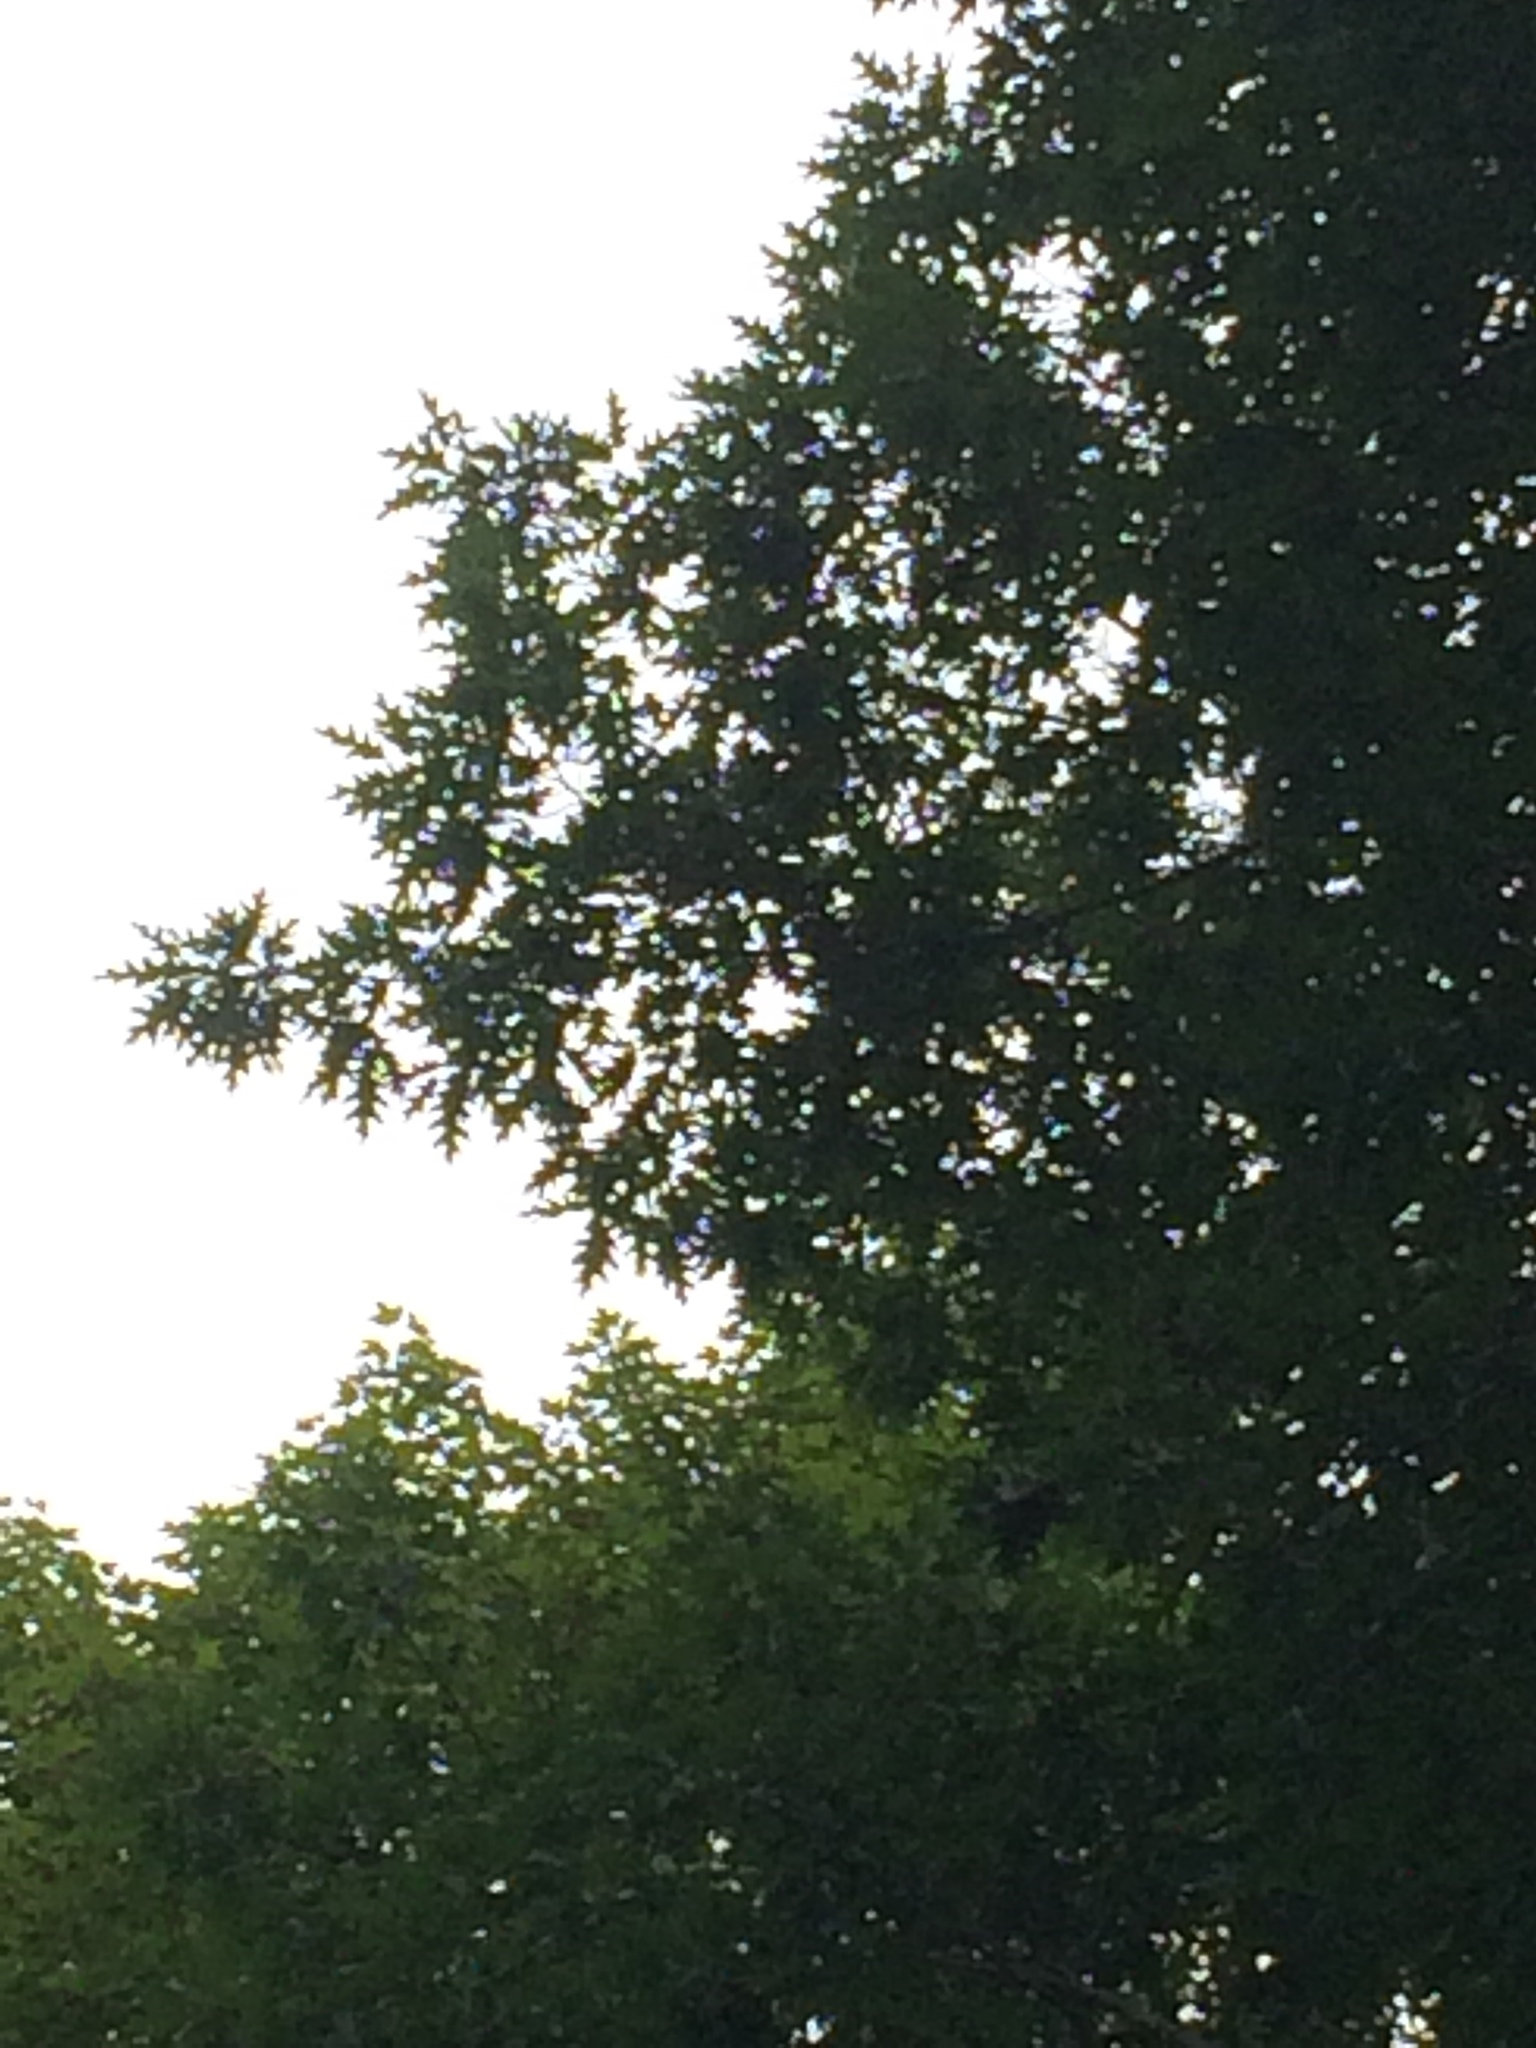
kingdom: Plantae
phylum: Tracheophyta
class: Magnoliopsida
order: Fagales
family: Fagaceae
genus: Quercus
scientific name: Quercus rubra
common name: Red oak
